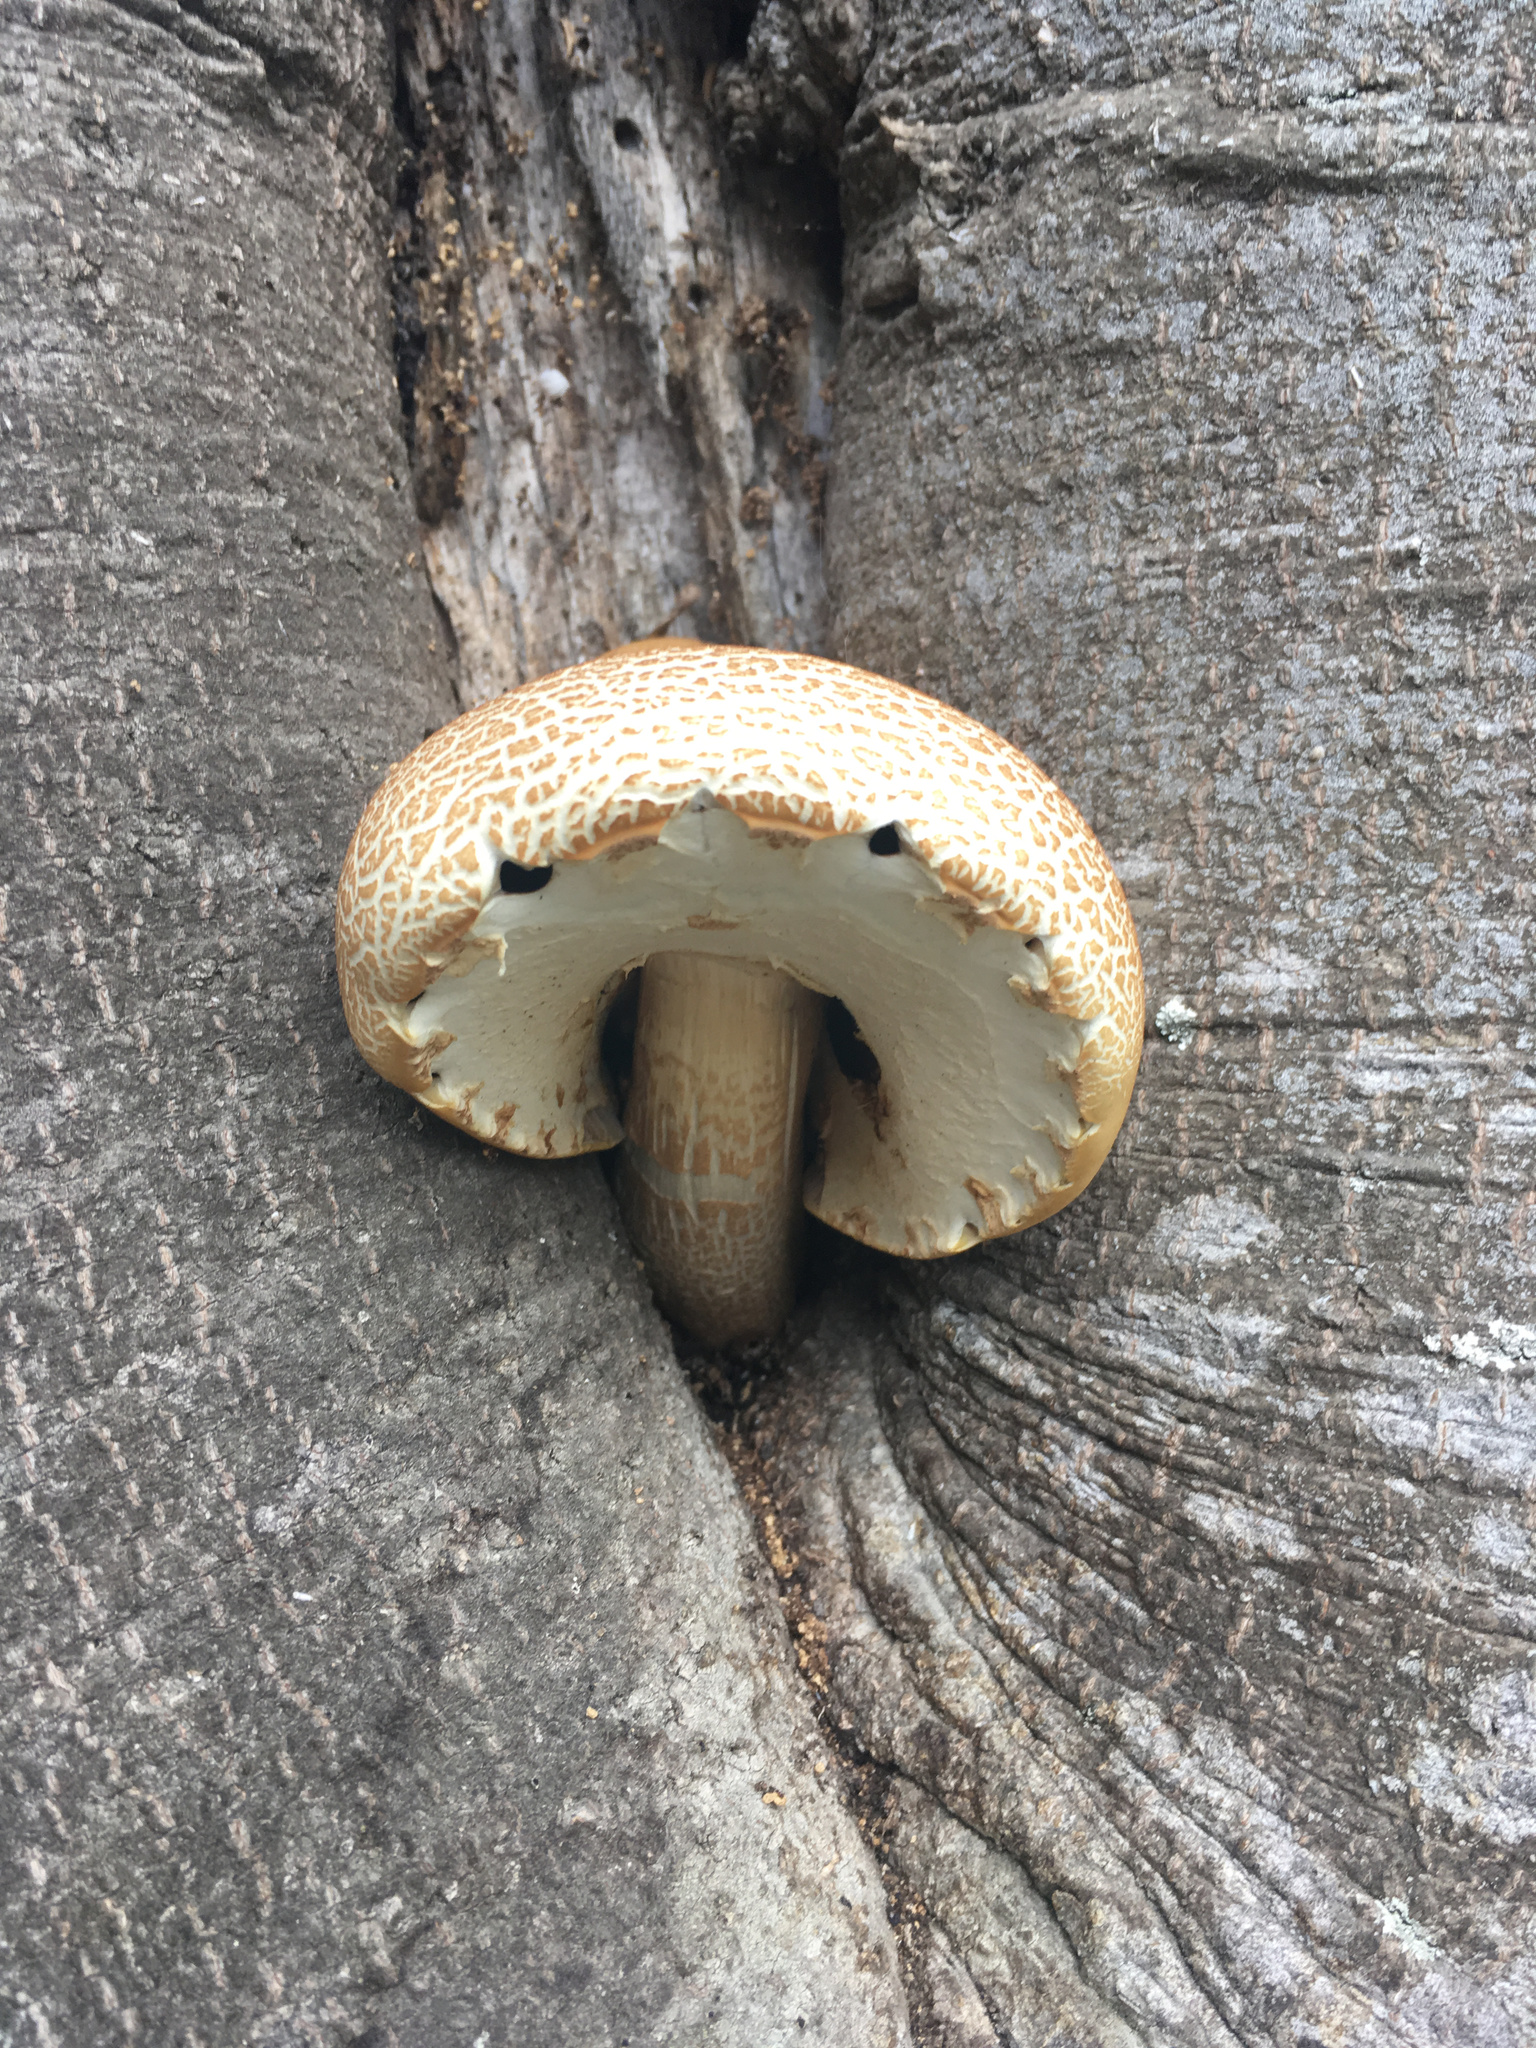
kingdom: Fungi
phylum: Basidiomycota
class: Agaricomycetes
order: Agaricales
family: Tubariaceae
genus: Cyclocybe
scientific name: Cyclocybe parasitica
